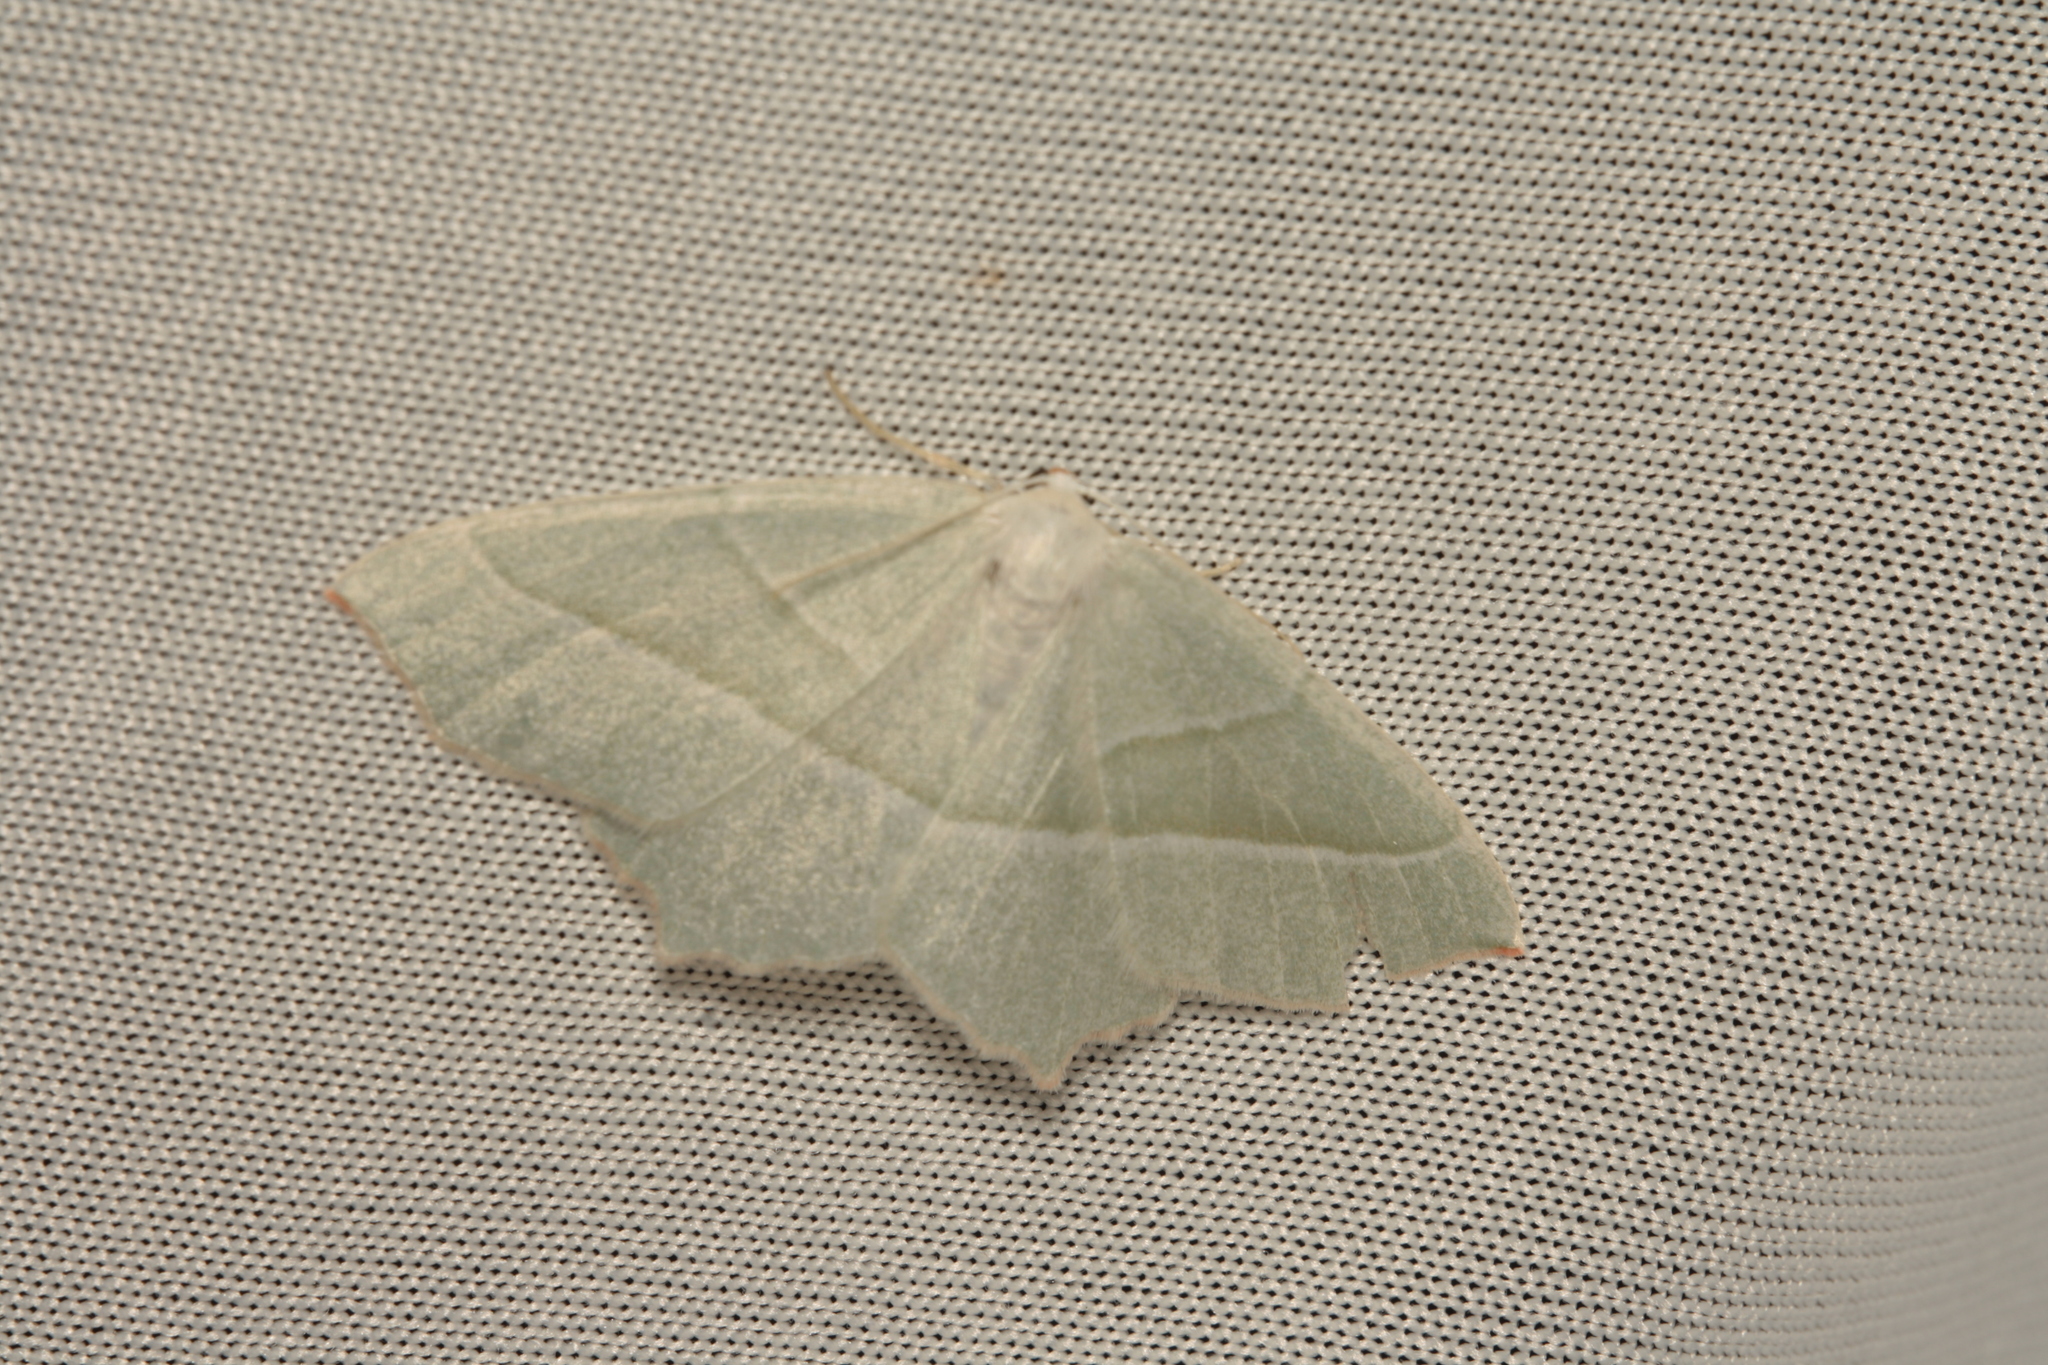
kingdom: Animalia
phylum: Arthropoda
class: Insecta
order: Lepidoptera
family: Geometridae
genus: Campaea
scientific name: Campaea margaritaria
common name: Light emerald
